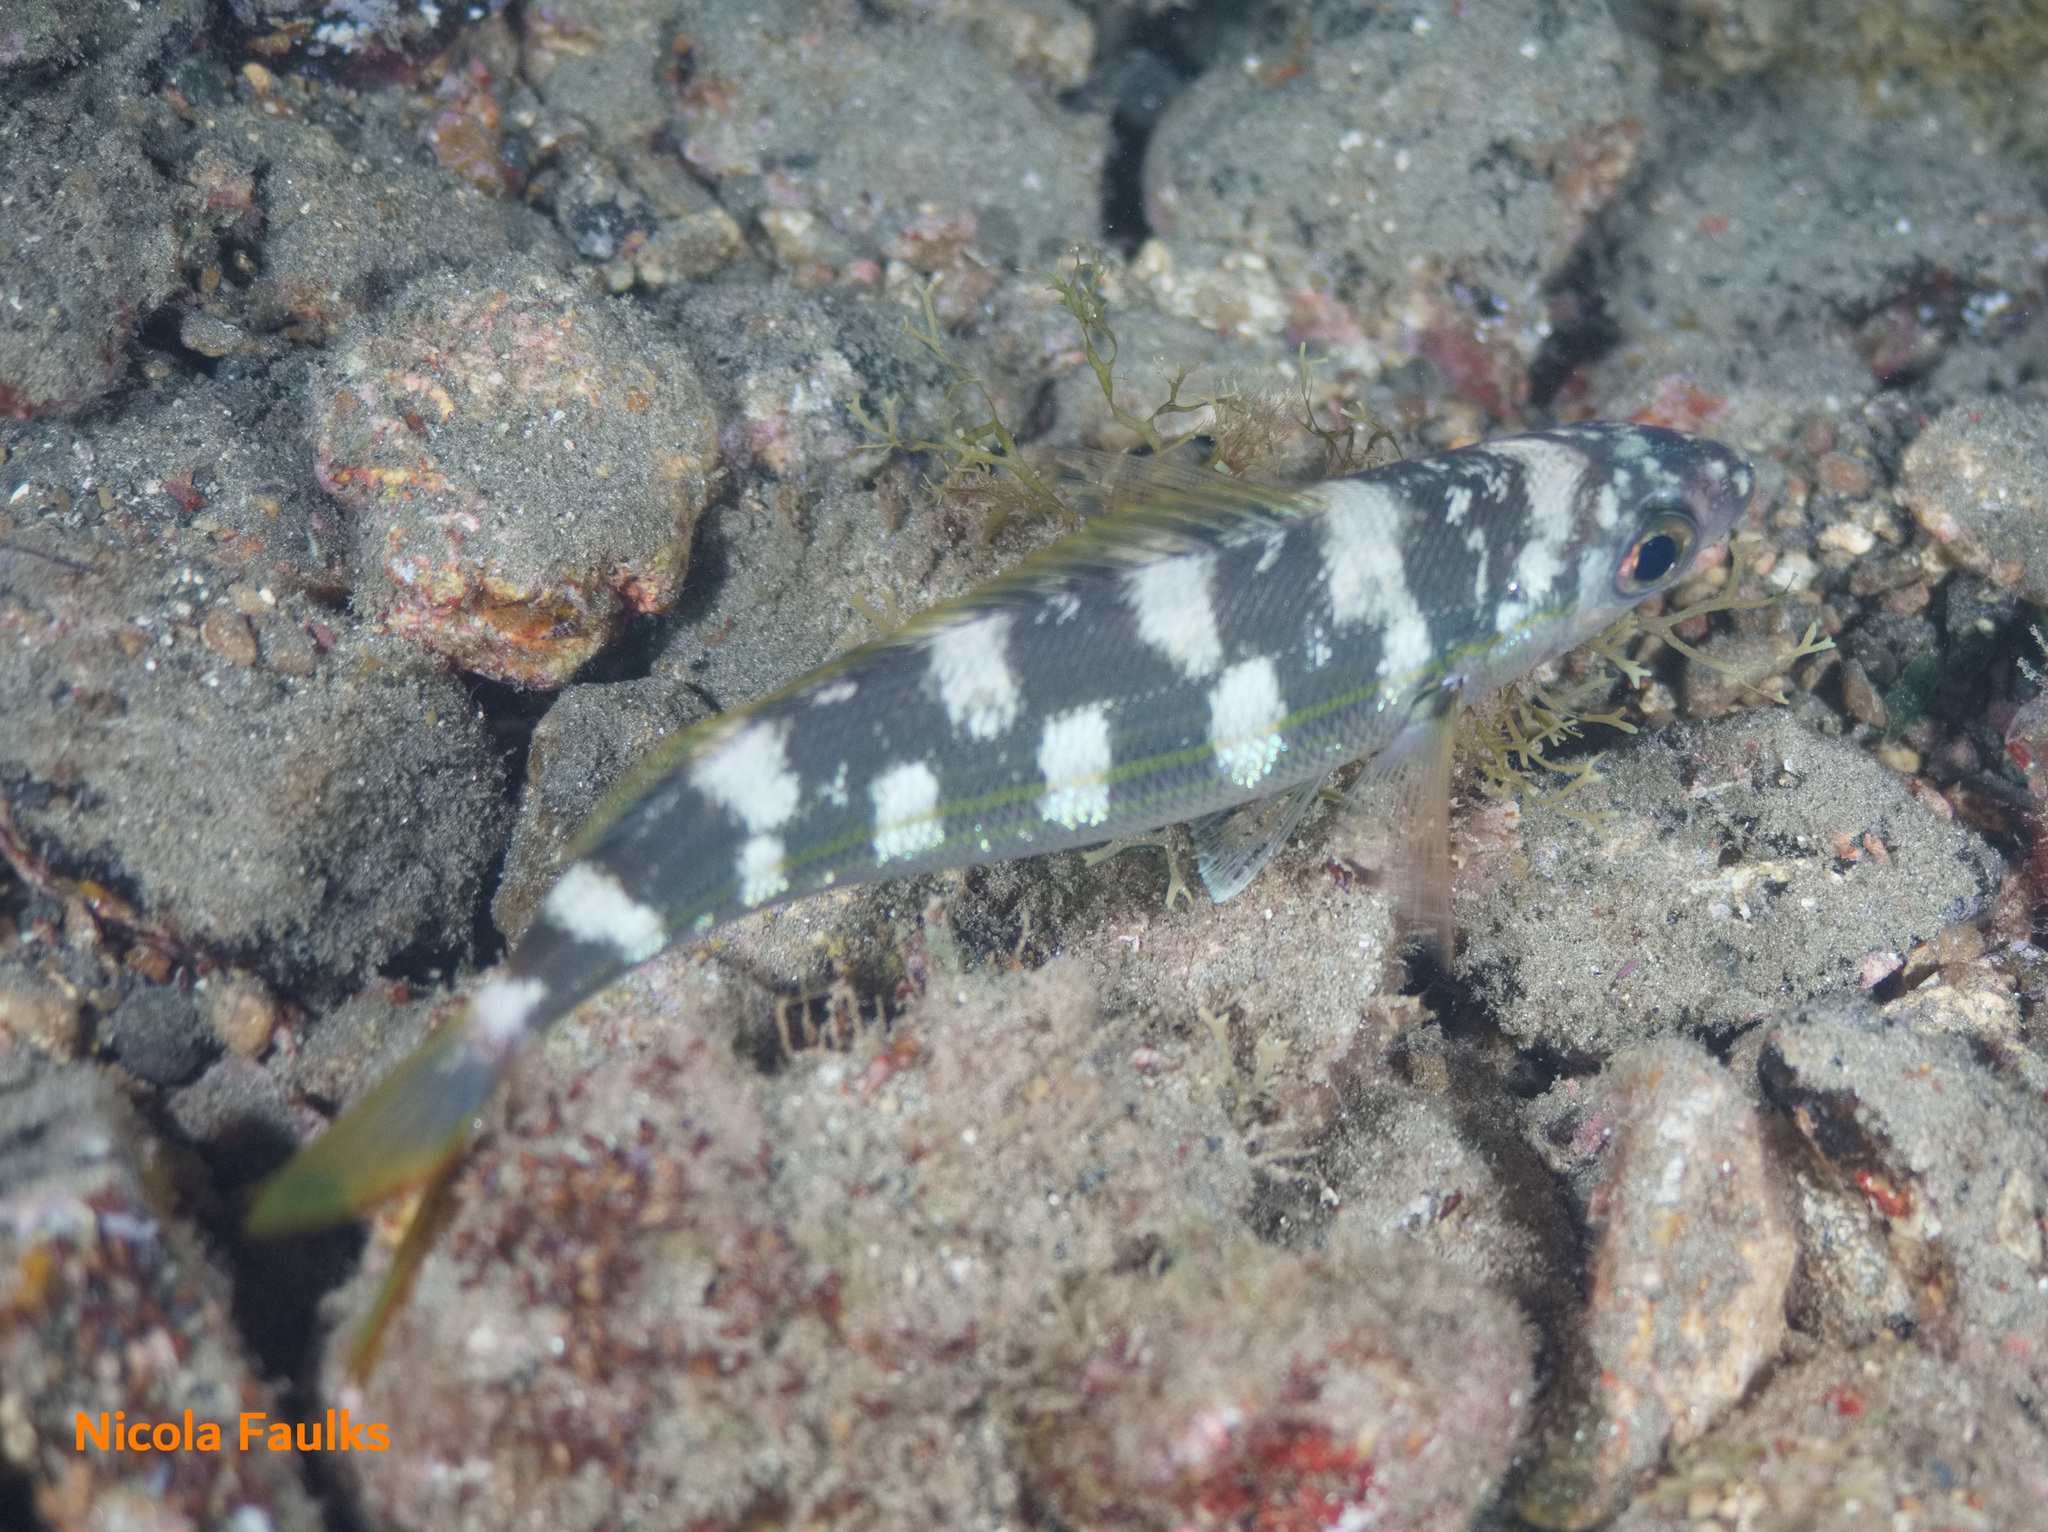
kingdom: Animalia
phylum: Chordata
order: Perciformes
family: Sparidae
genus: Boops
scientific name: Boops boops
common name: Bogue
